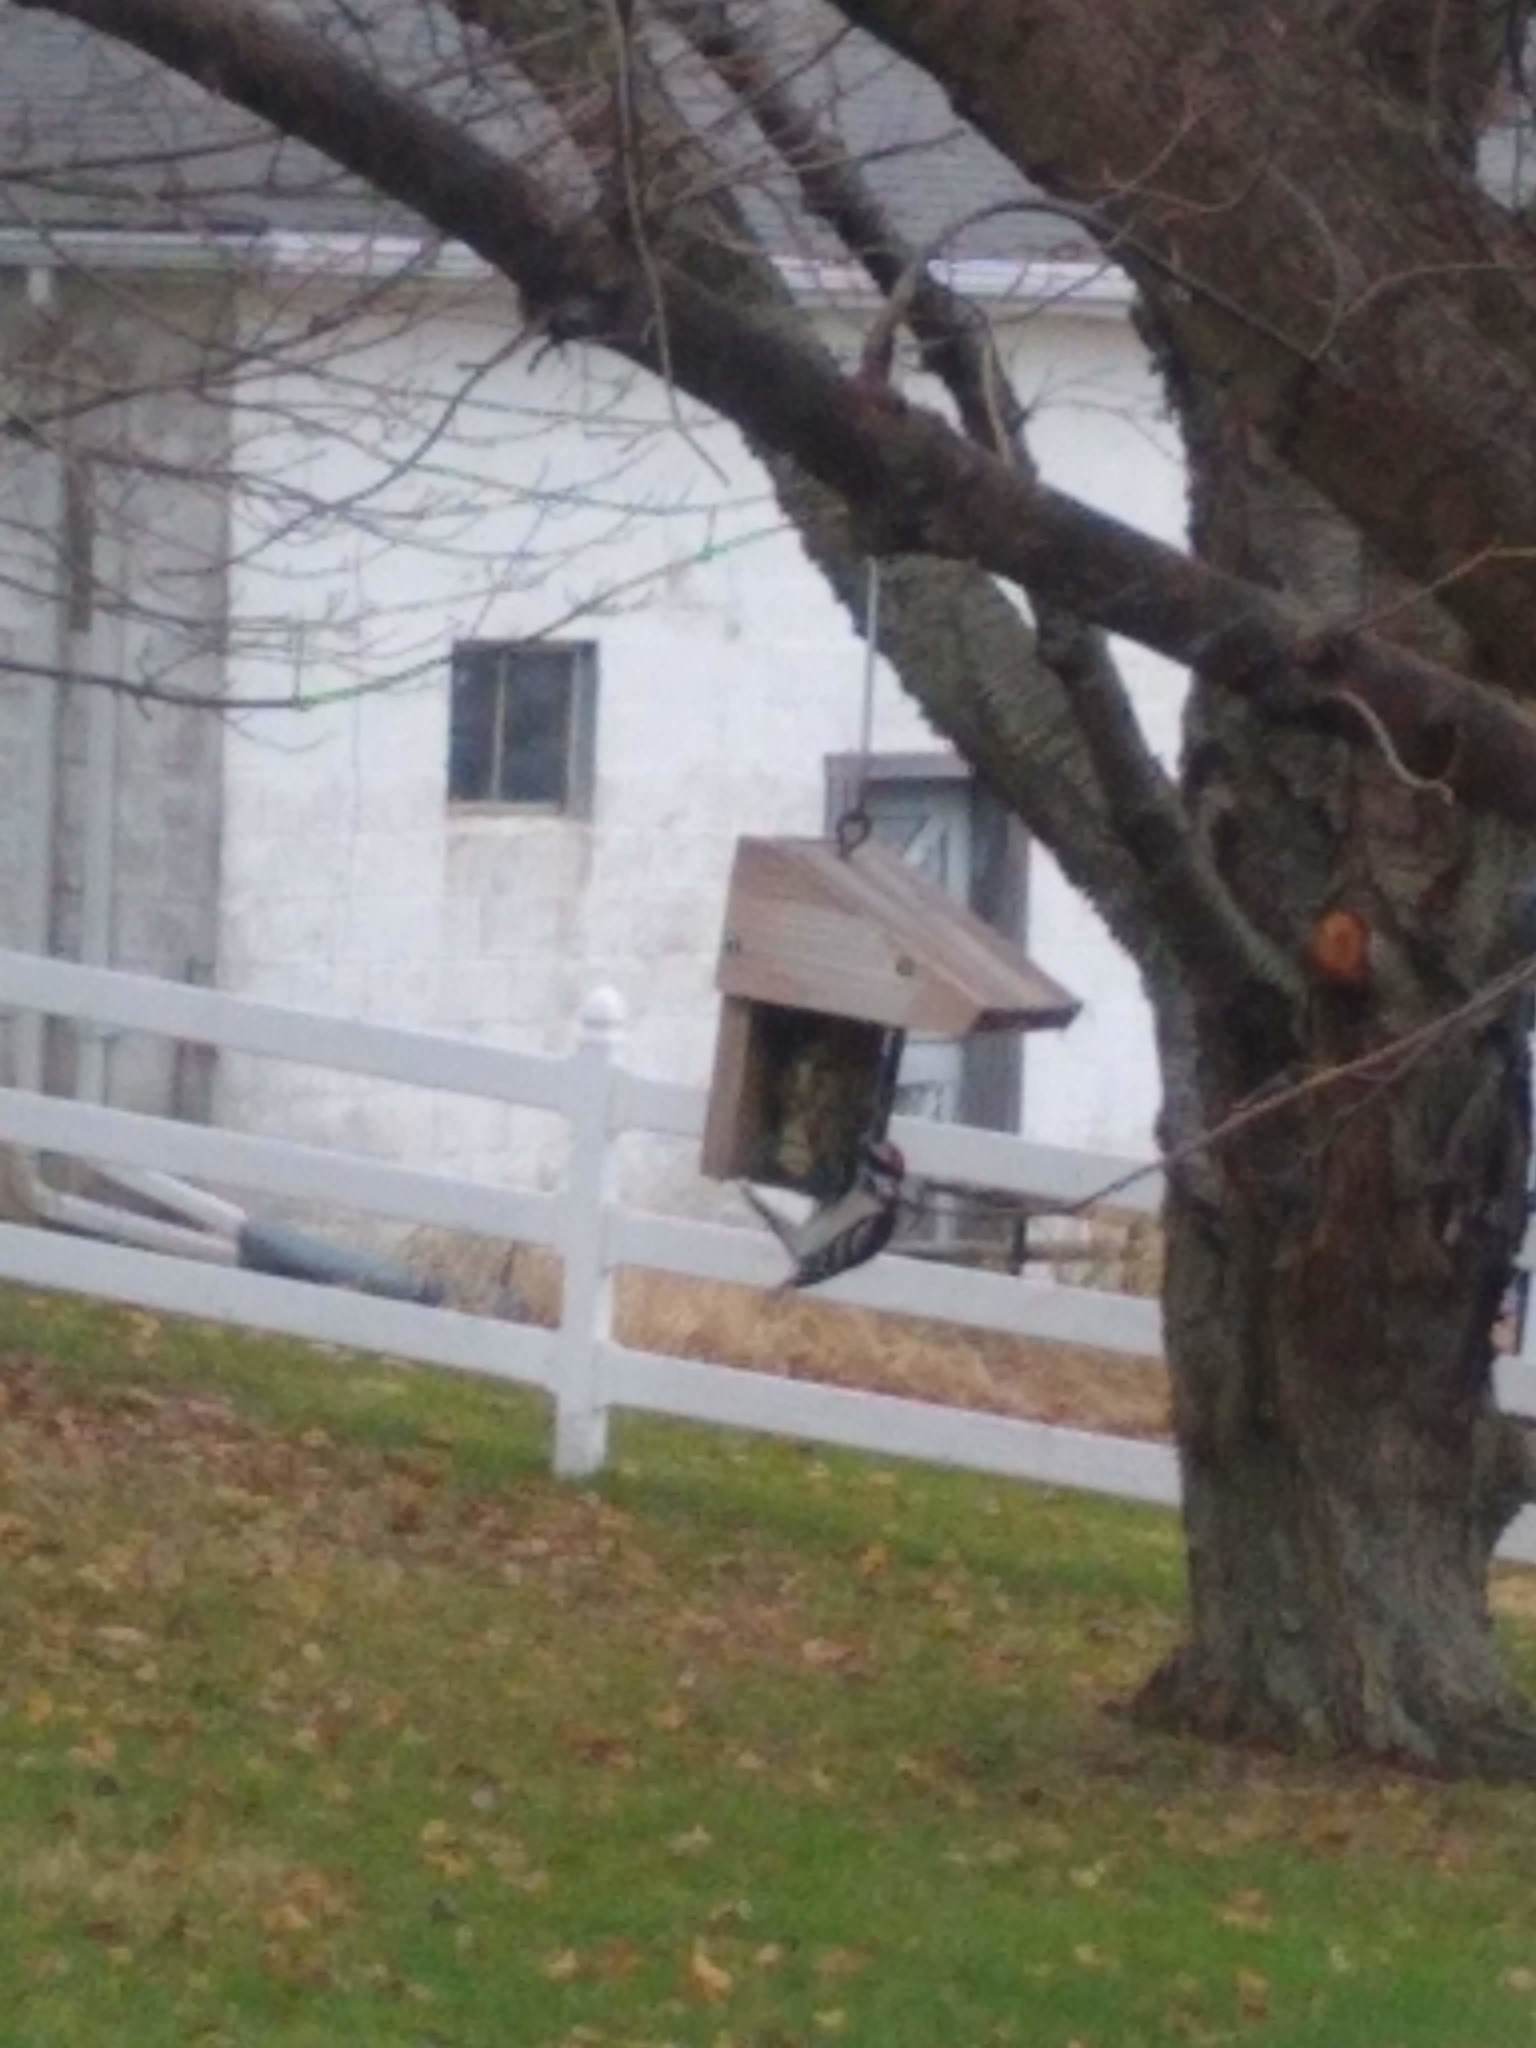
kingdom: Animalia
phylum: Chordata
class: Aves
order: Piciformes
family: Picidae
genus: Dryobates
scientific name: Dryobates pubescens
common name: Downy woodpecker
